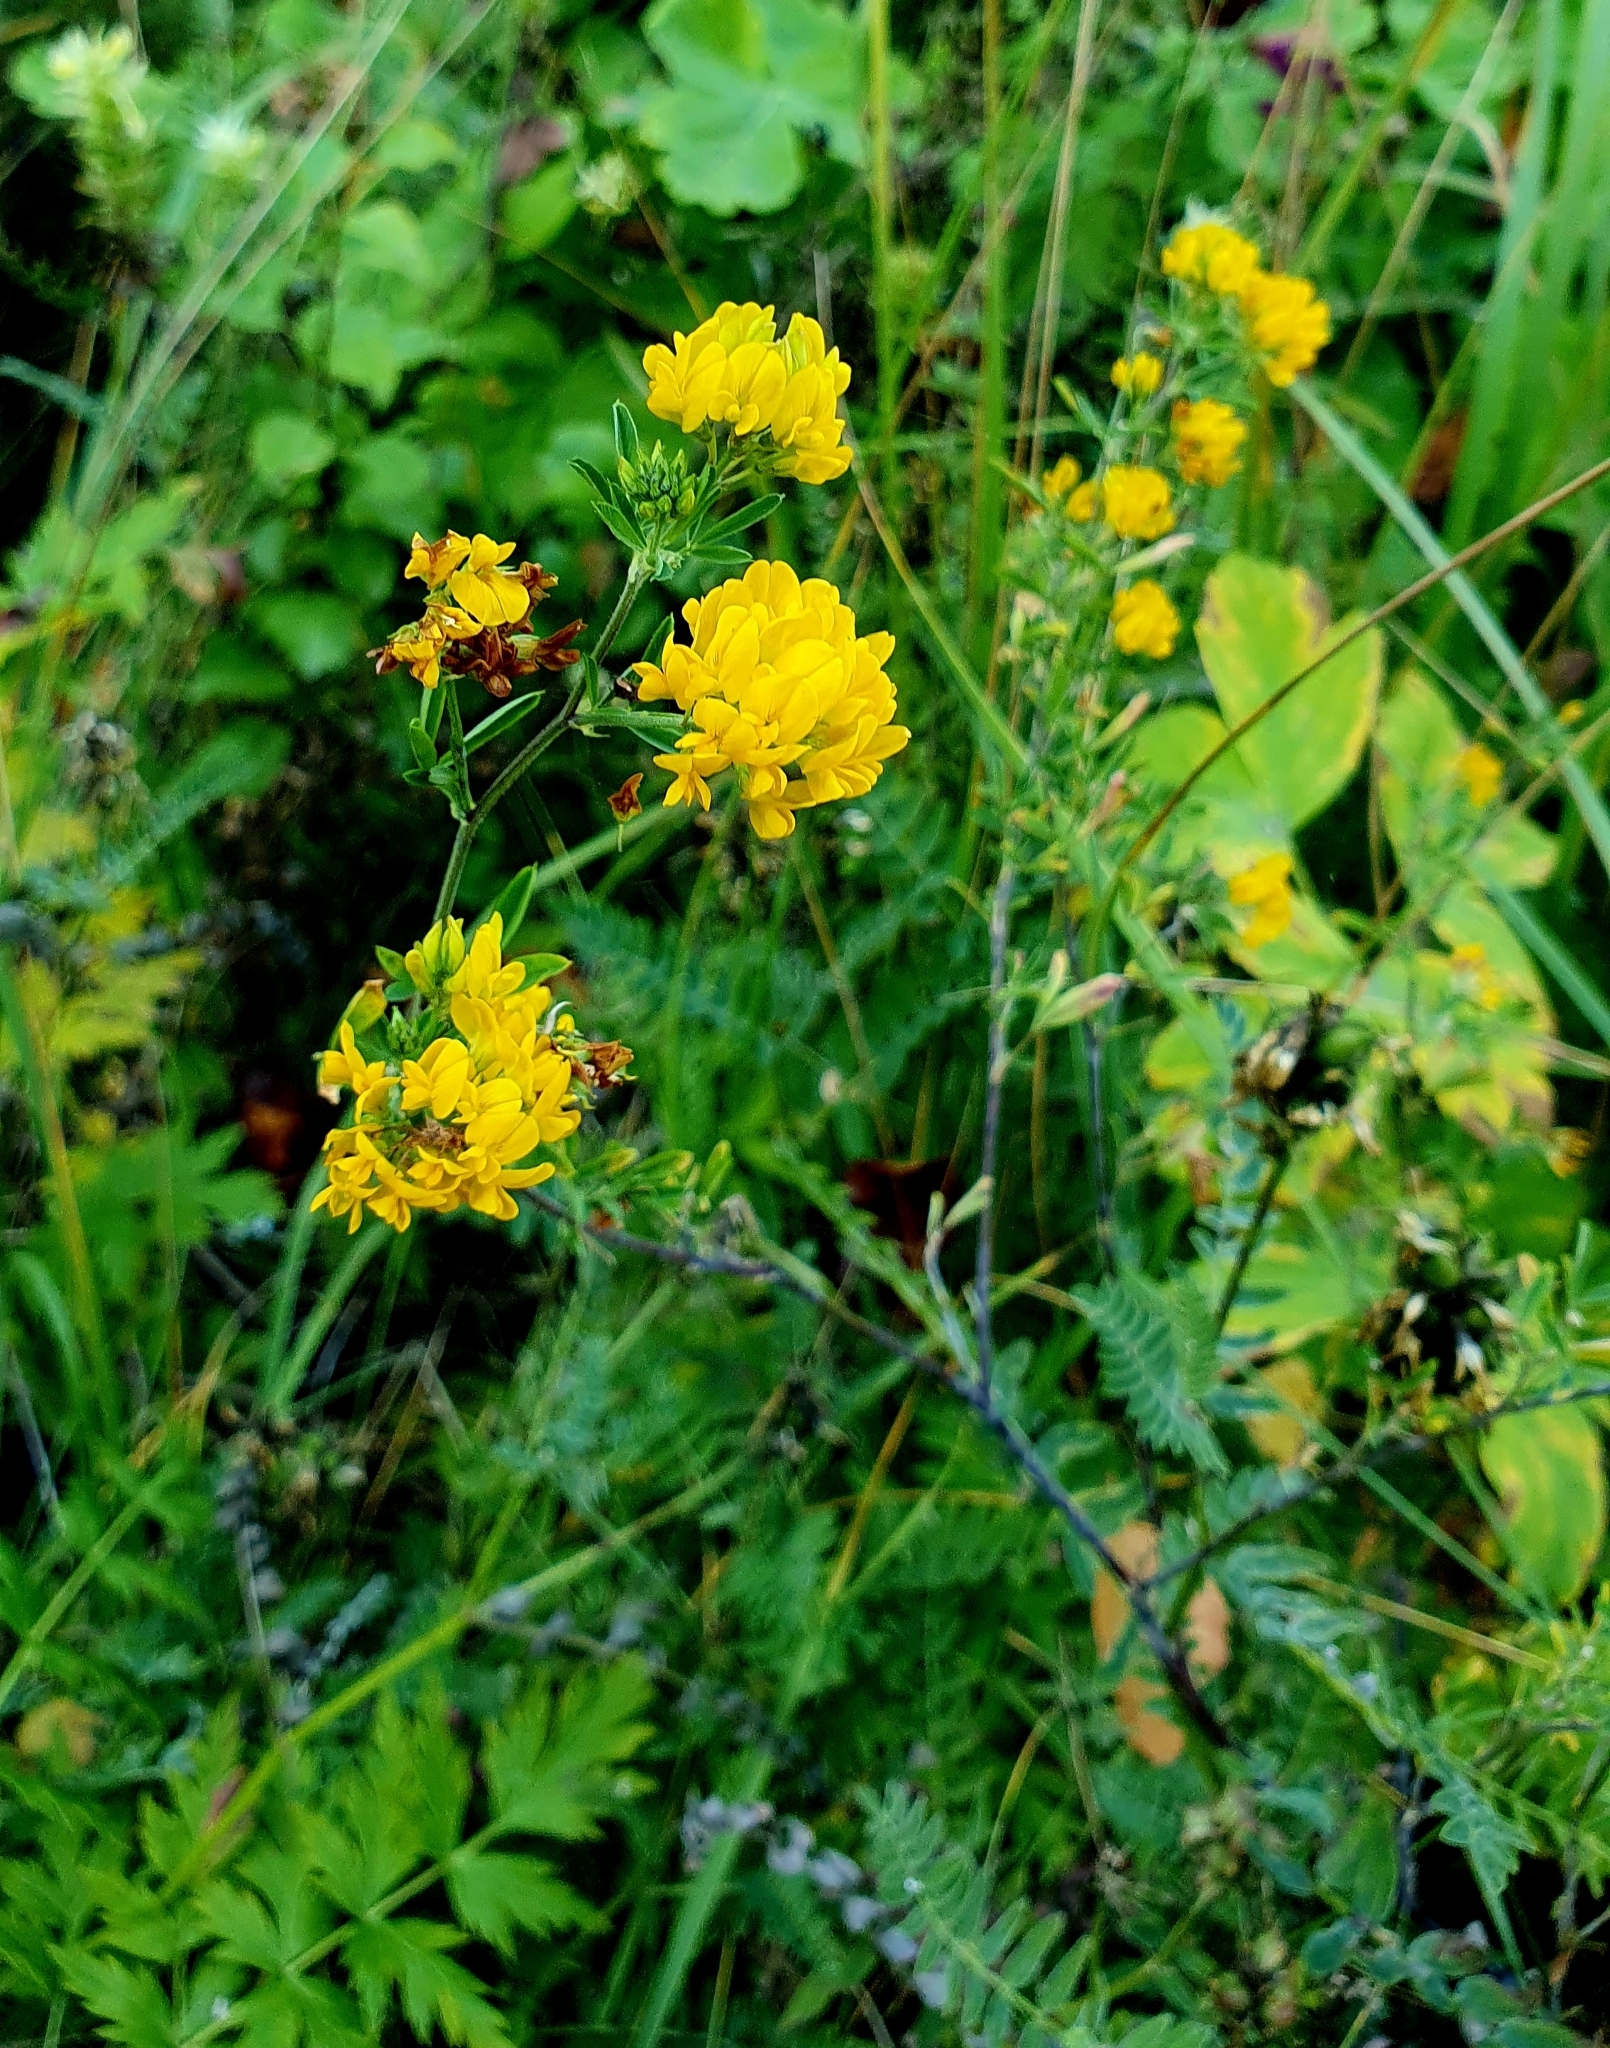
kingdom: Plantae
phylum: Tracheophyta
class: Magnoliopsida
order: Fabales
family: Fabaceae
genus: Medicago
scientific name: Medicago falcata
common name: Sickle medick
